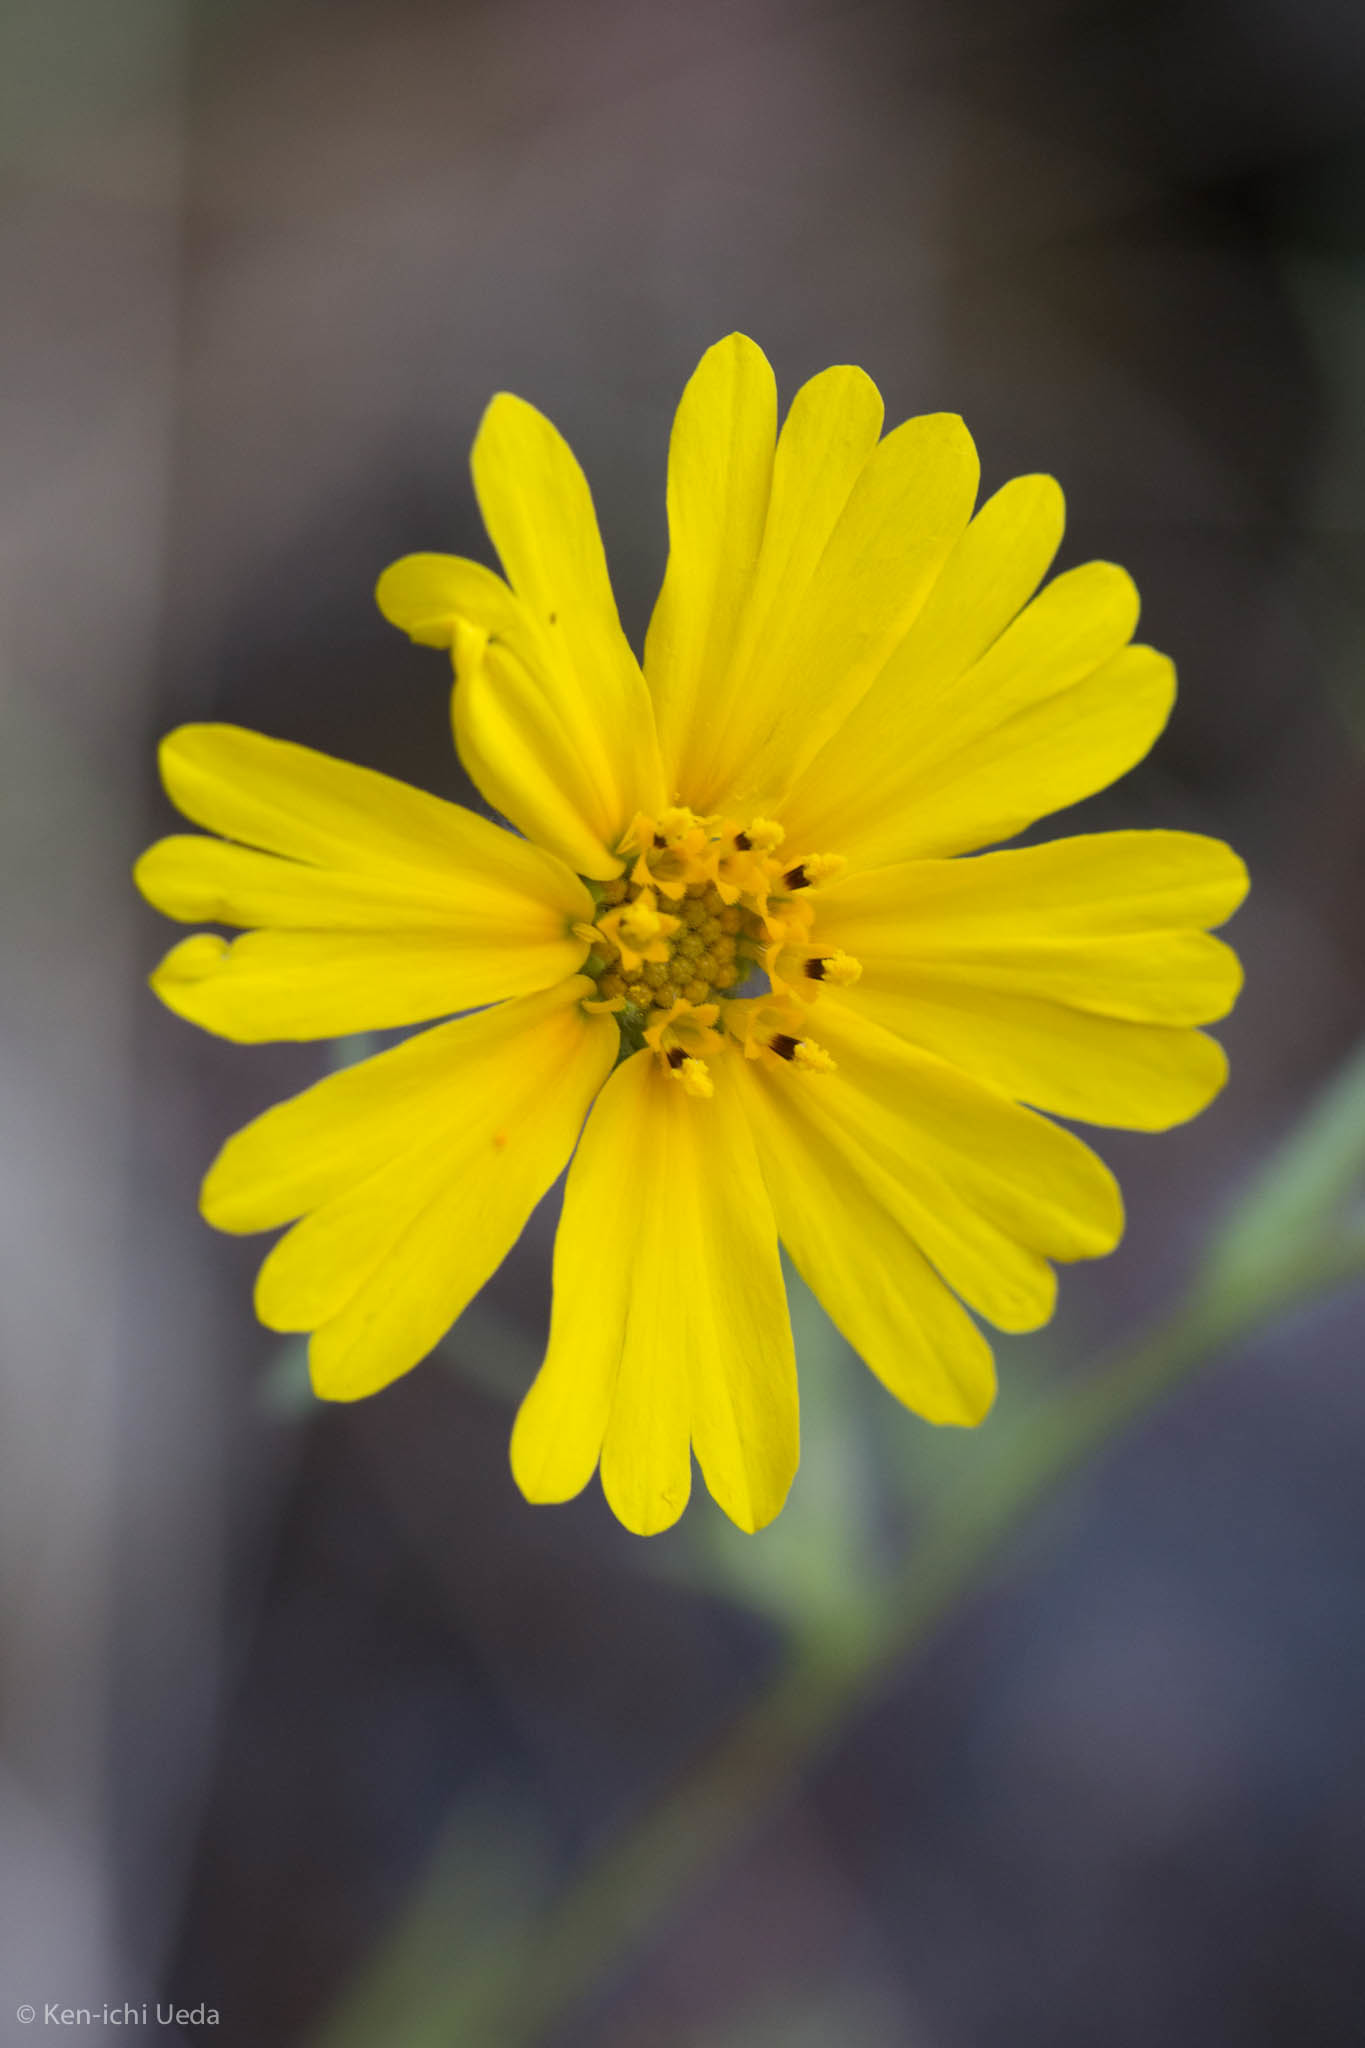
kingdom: Plantae
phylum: Tracheophyta
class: Magnoliopsida
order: Asterales
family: Asteraceae
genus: Madia
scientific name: Madia elegans
